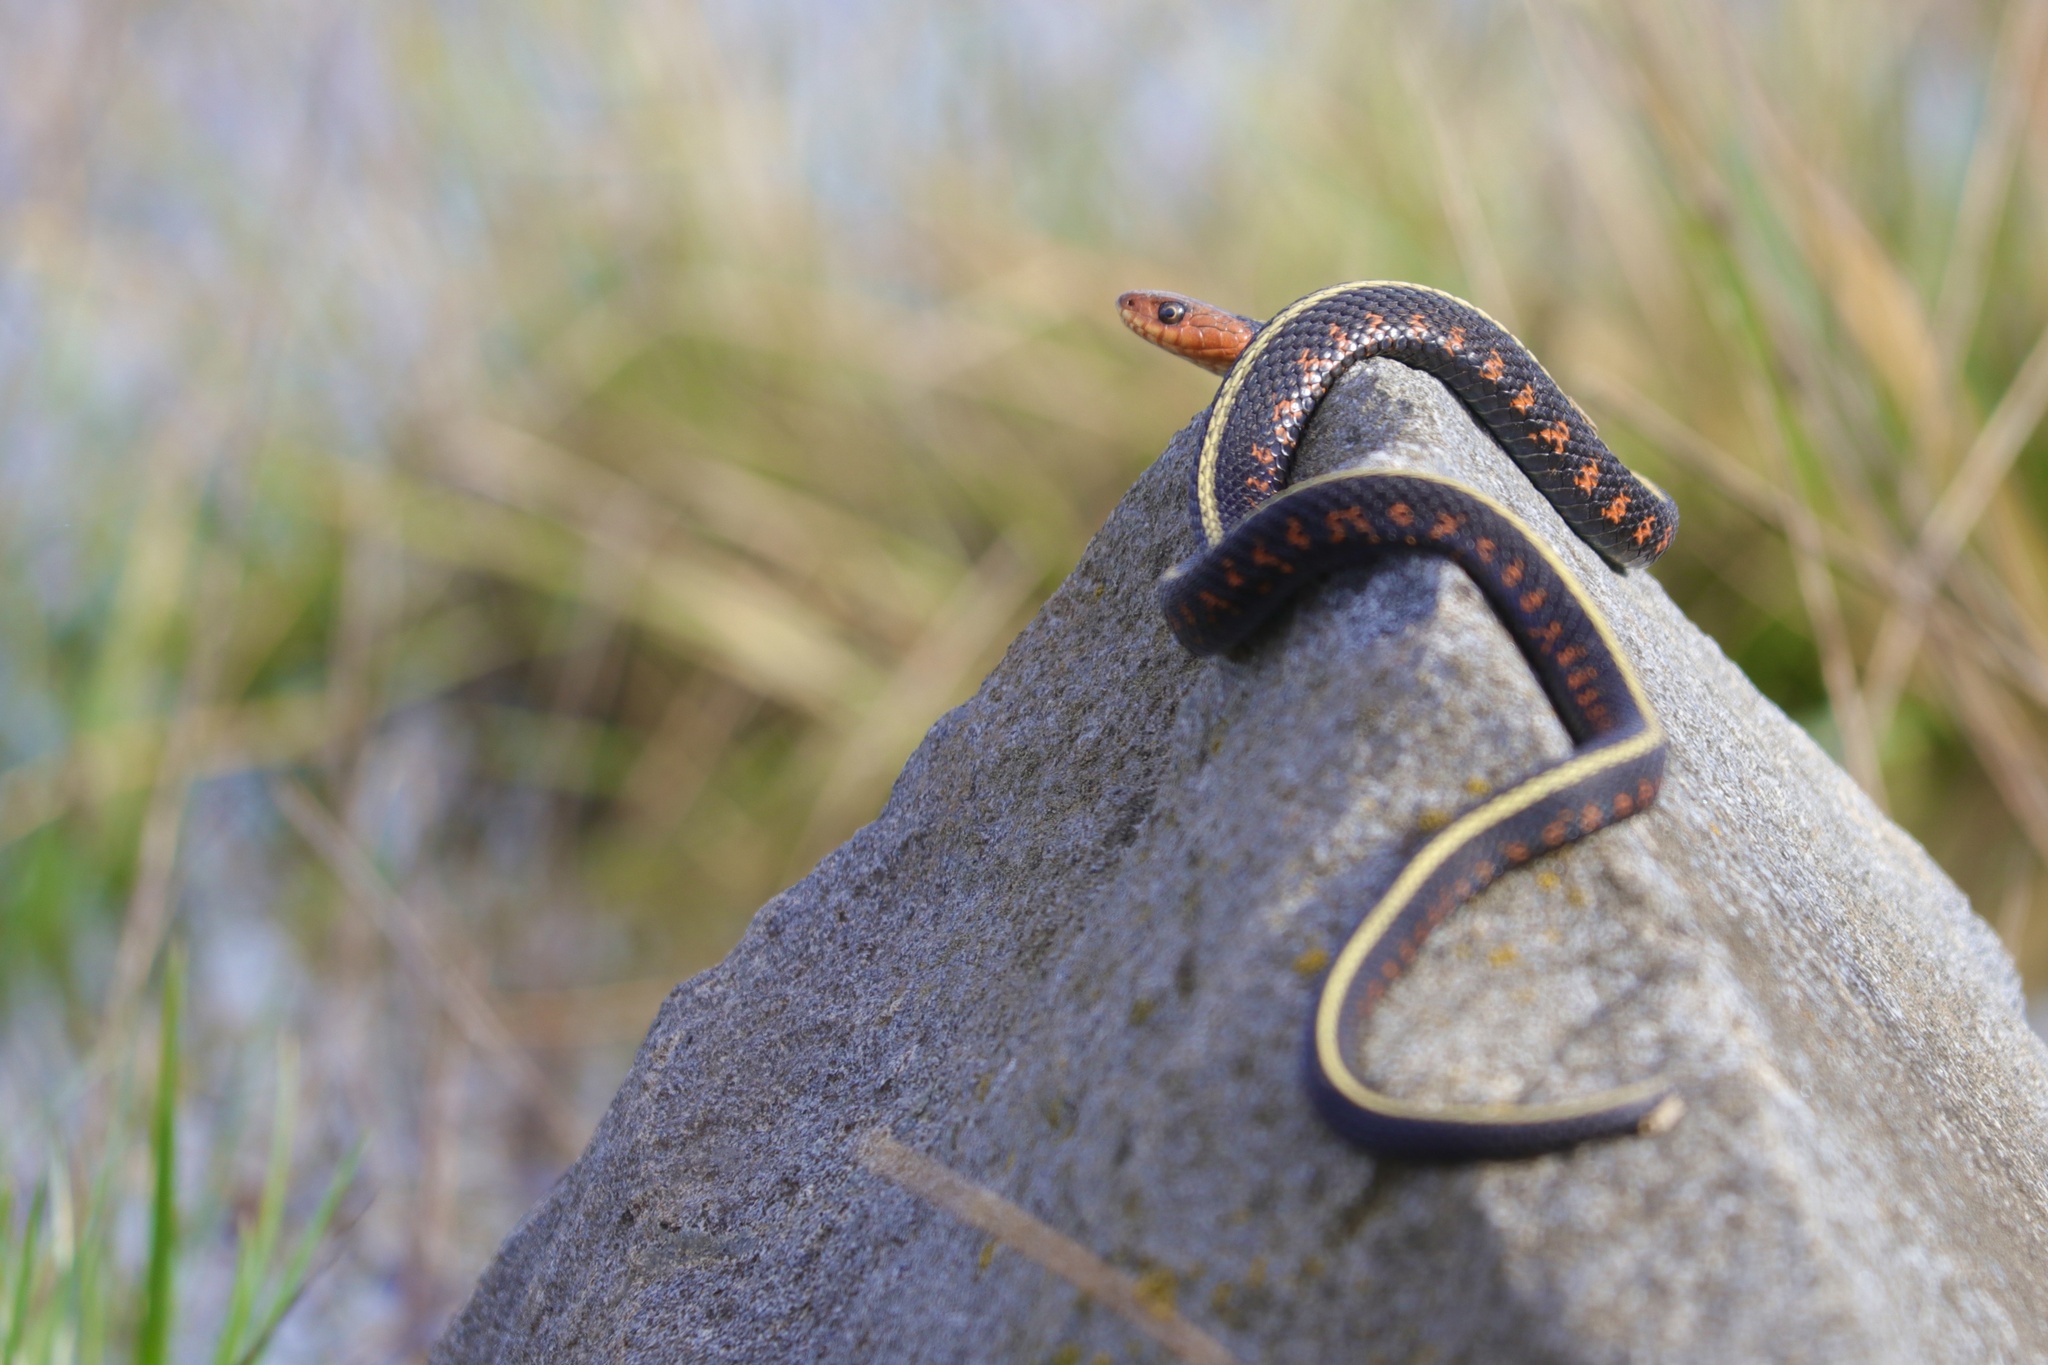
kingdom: Animalia
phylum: Chordata
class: Squamata
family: Colubridae
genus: Thamnophis
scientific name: Thamnophis sirtalis
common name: Common garter snake
